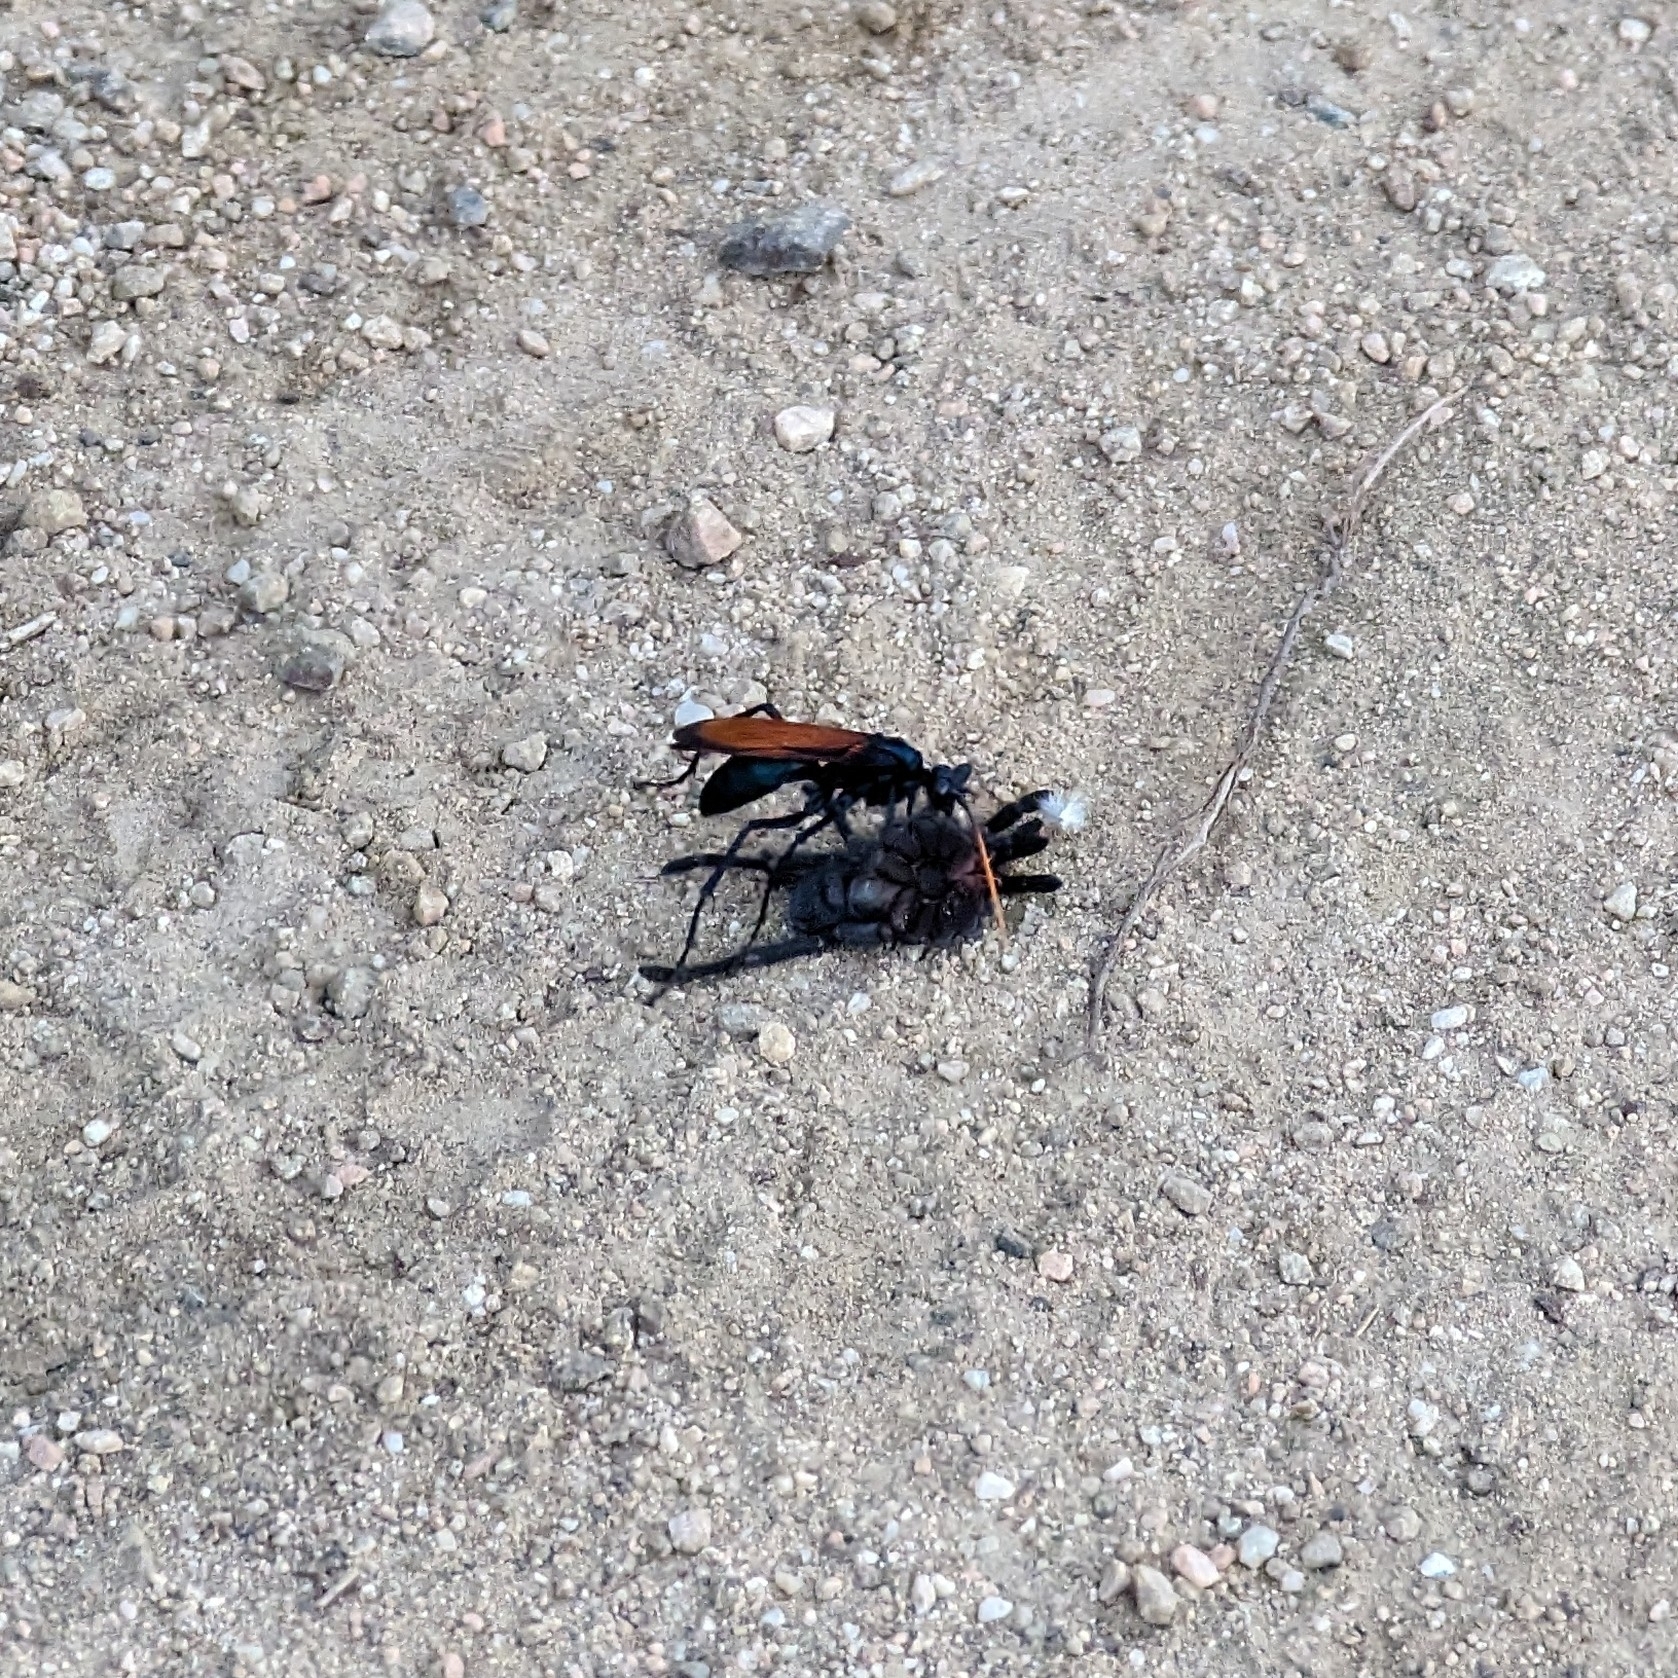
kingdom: Animalia
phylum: Arthropoda
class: Insecta
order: Hymenoptera
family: Pompilidae
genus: Pepsis
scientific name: Pepsis mildei
